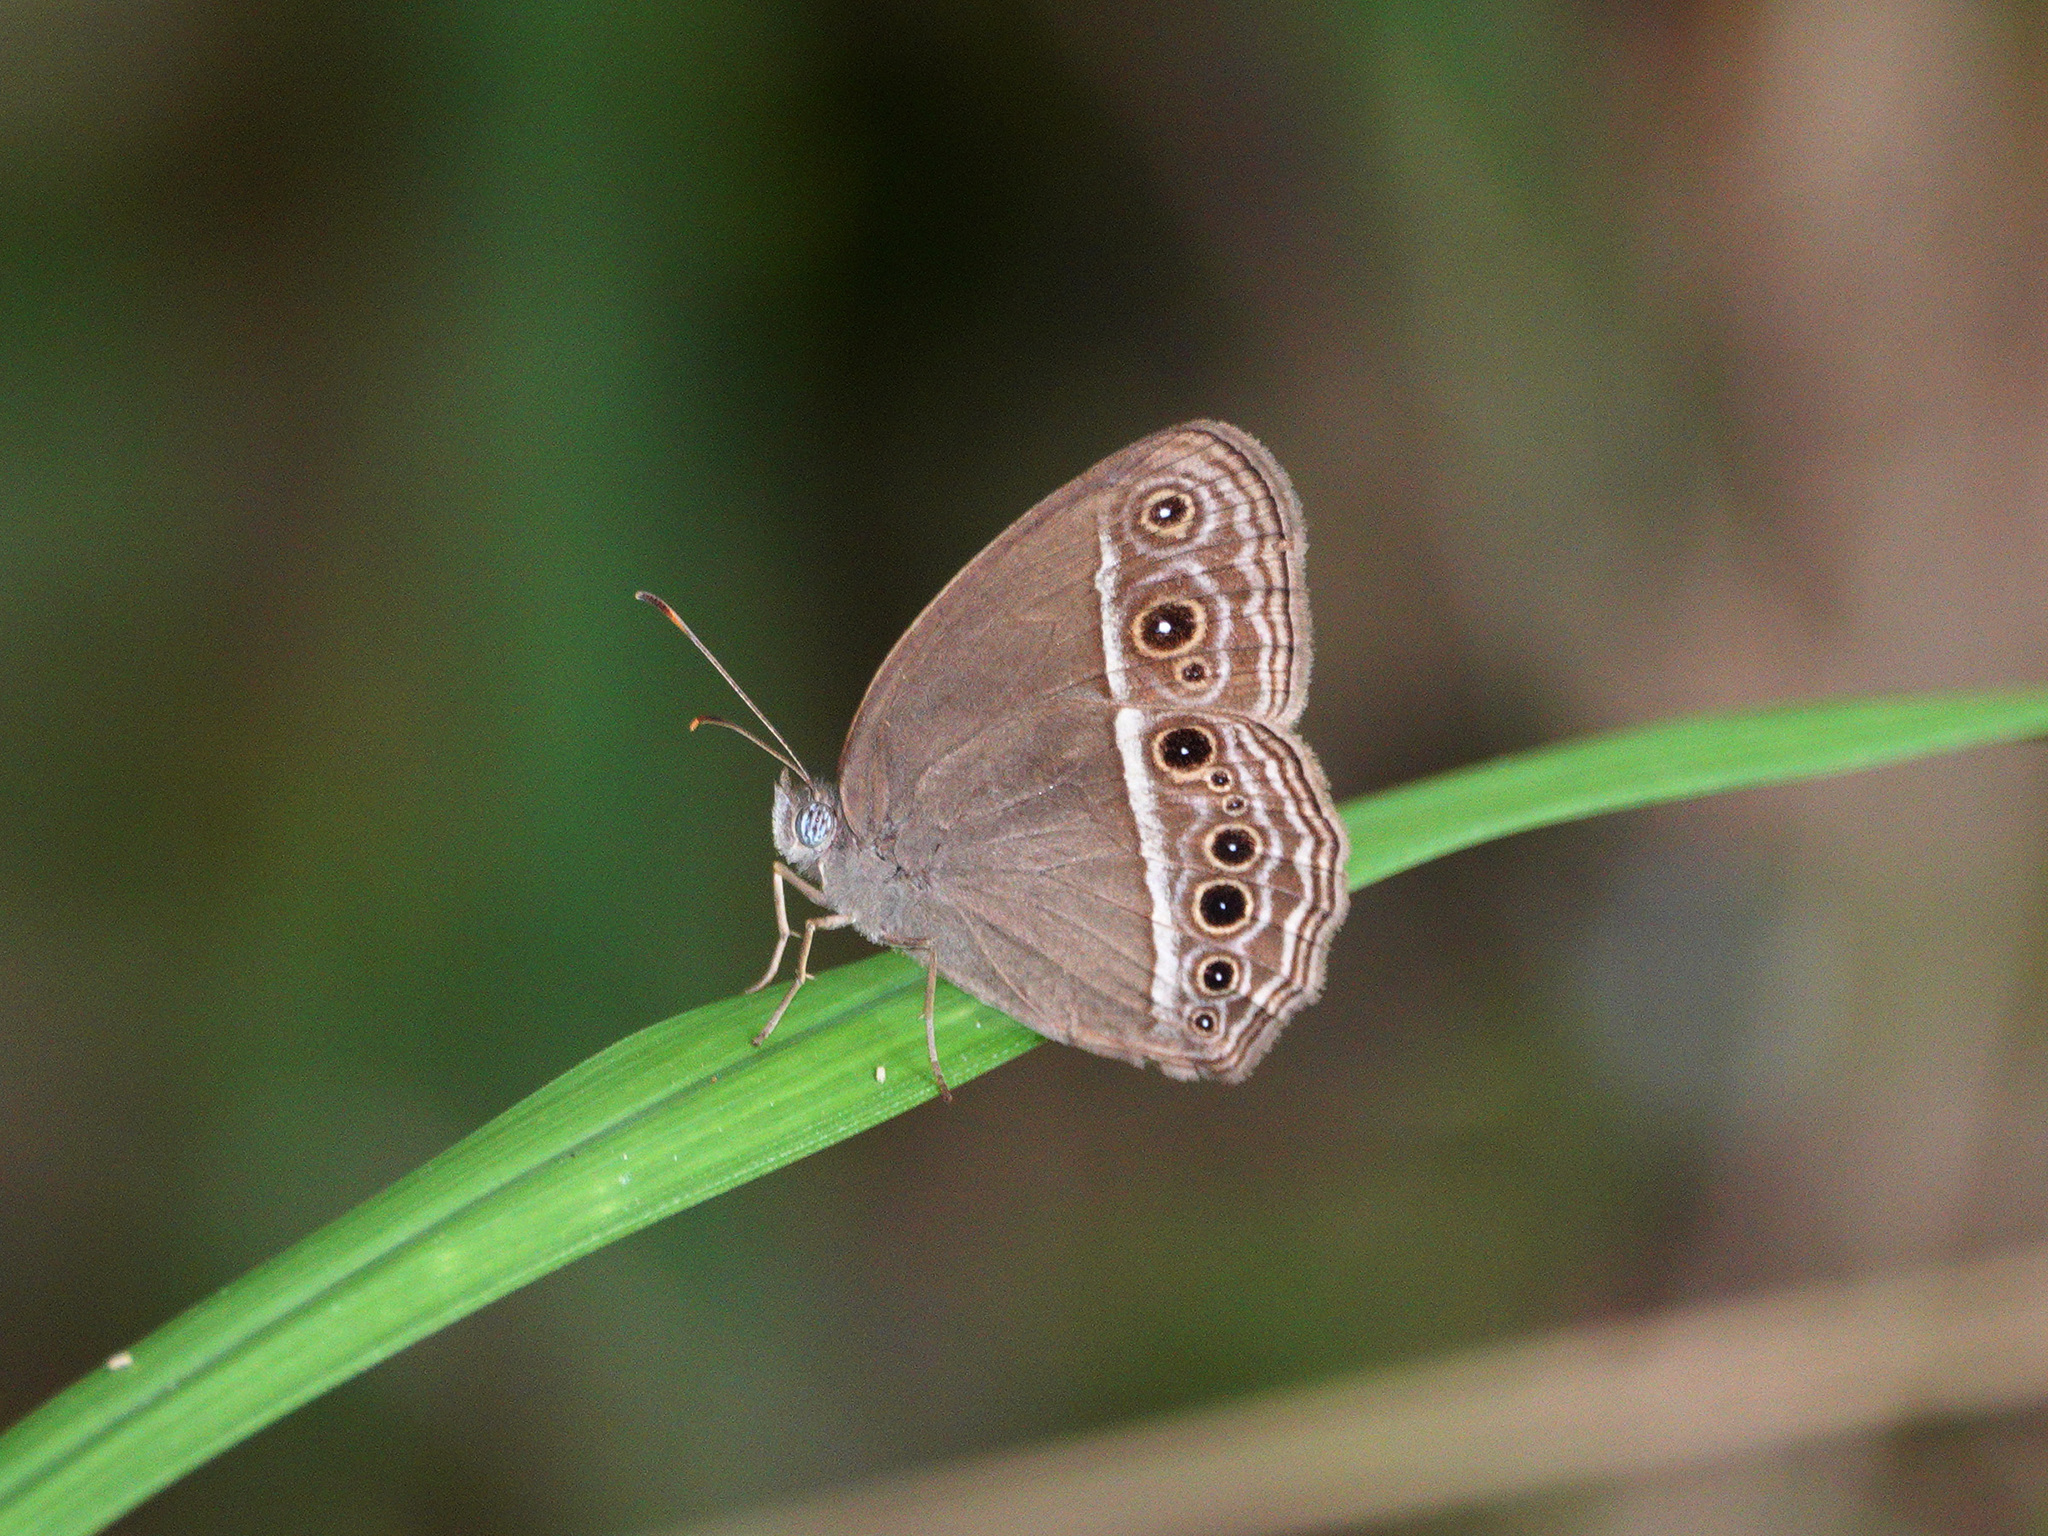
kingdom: Animalia
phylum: Arthropoda
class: Insecta
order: Lepidoptera
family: Nymphalidae
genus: Mycalesis
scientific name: Mycalesis mineus
